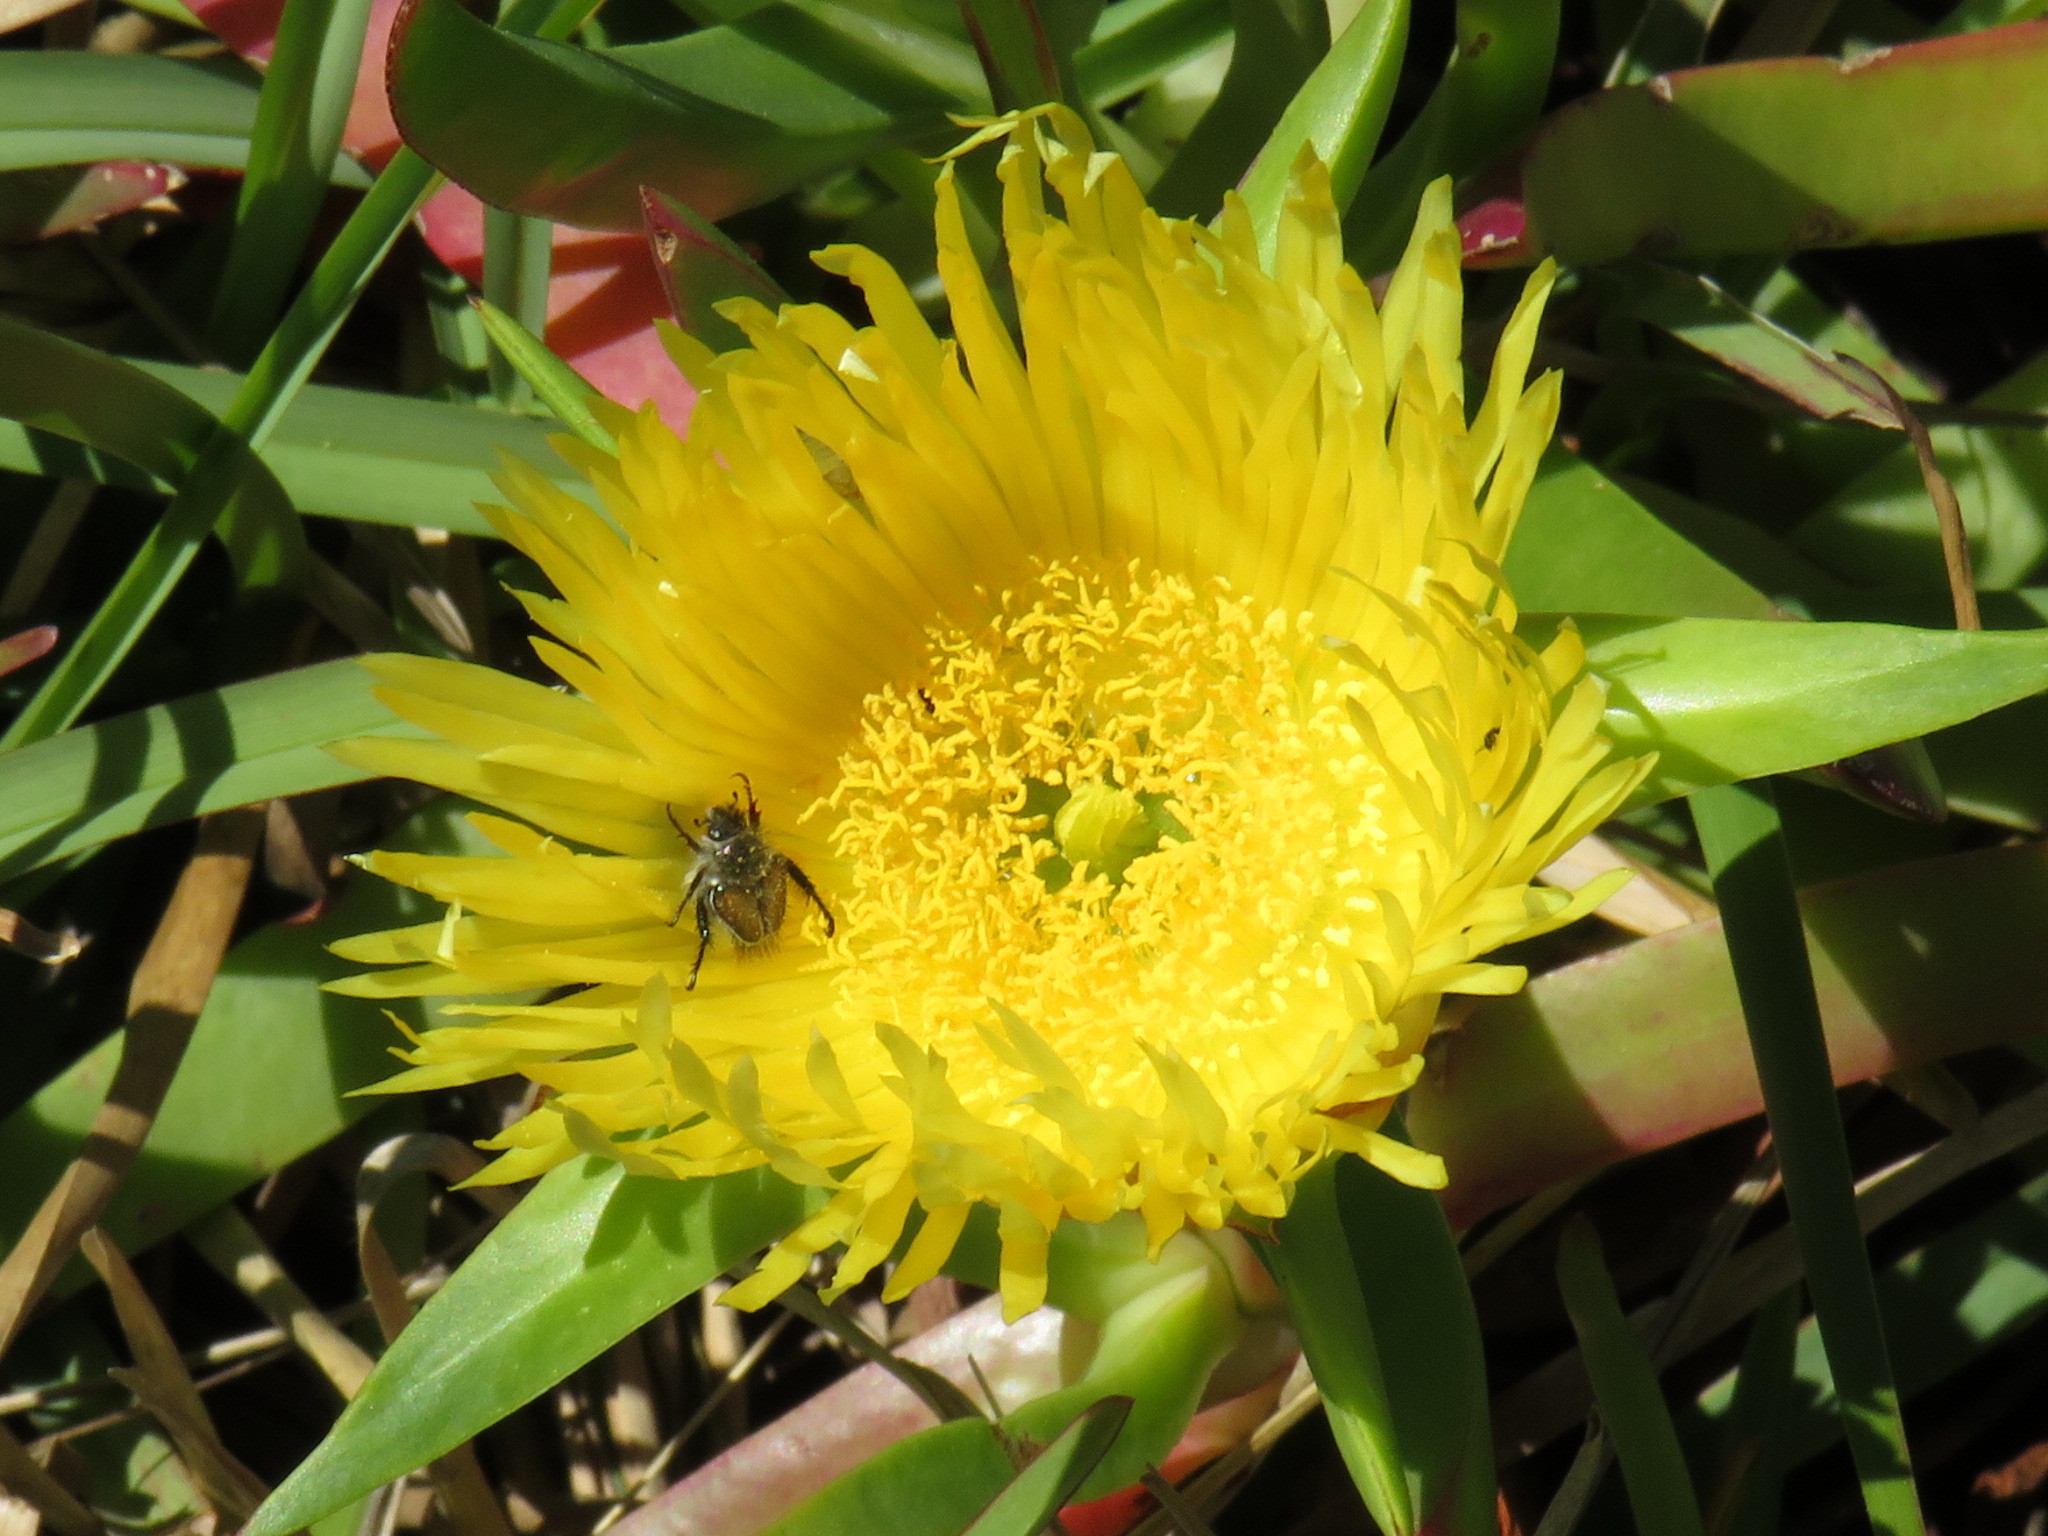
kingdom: Plantae
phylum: Tracheophyta
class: Magnoliopsida
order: Caryophyllales
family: Aizoaceae
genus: Carpobrotus
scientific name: Carpobrotus edulis
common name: Hottentot-fig
